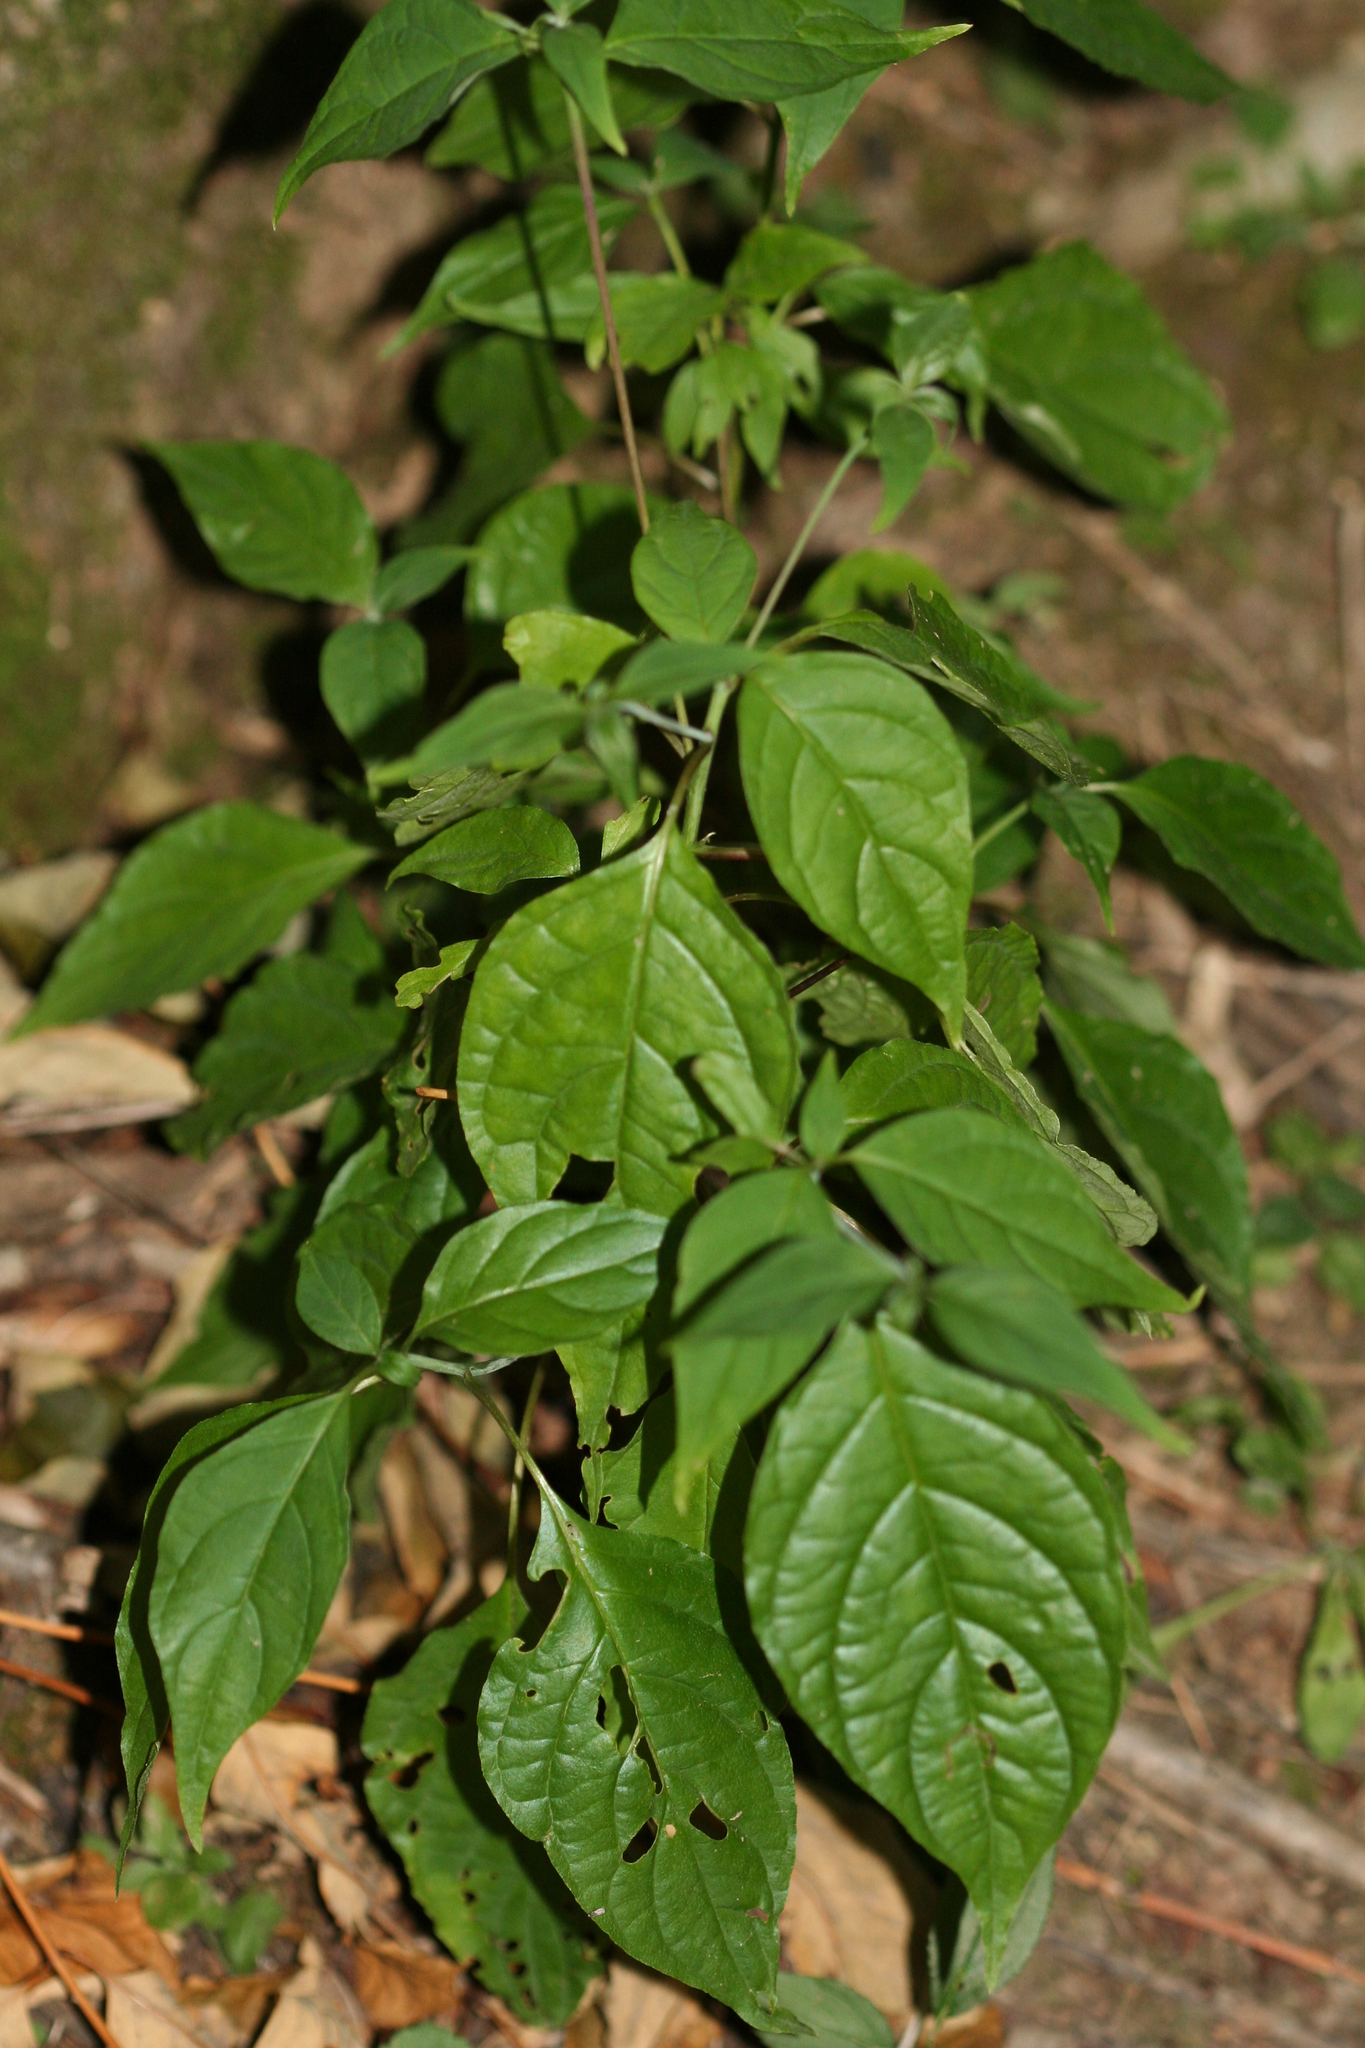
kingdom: Plantae
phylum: Tracheophyta
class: Magnoliopsida
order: Solanales
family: Solanaceae
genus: Solanum
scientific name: Solanum dulcamara
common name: Climbing nightshade
